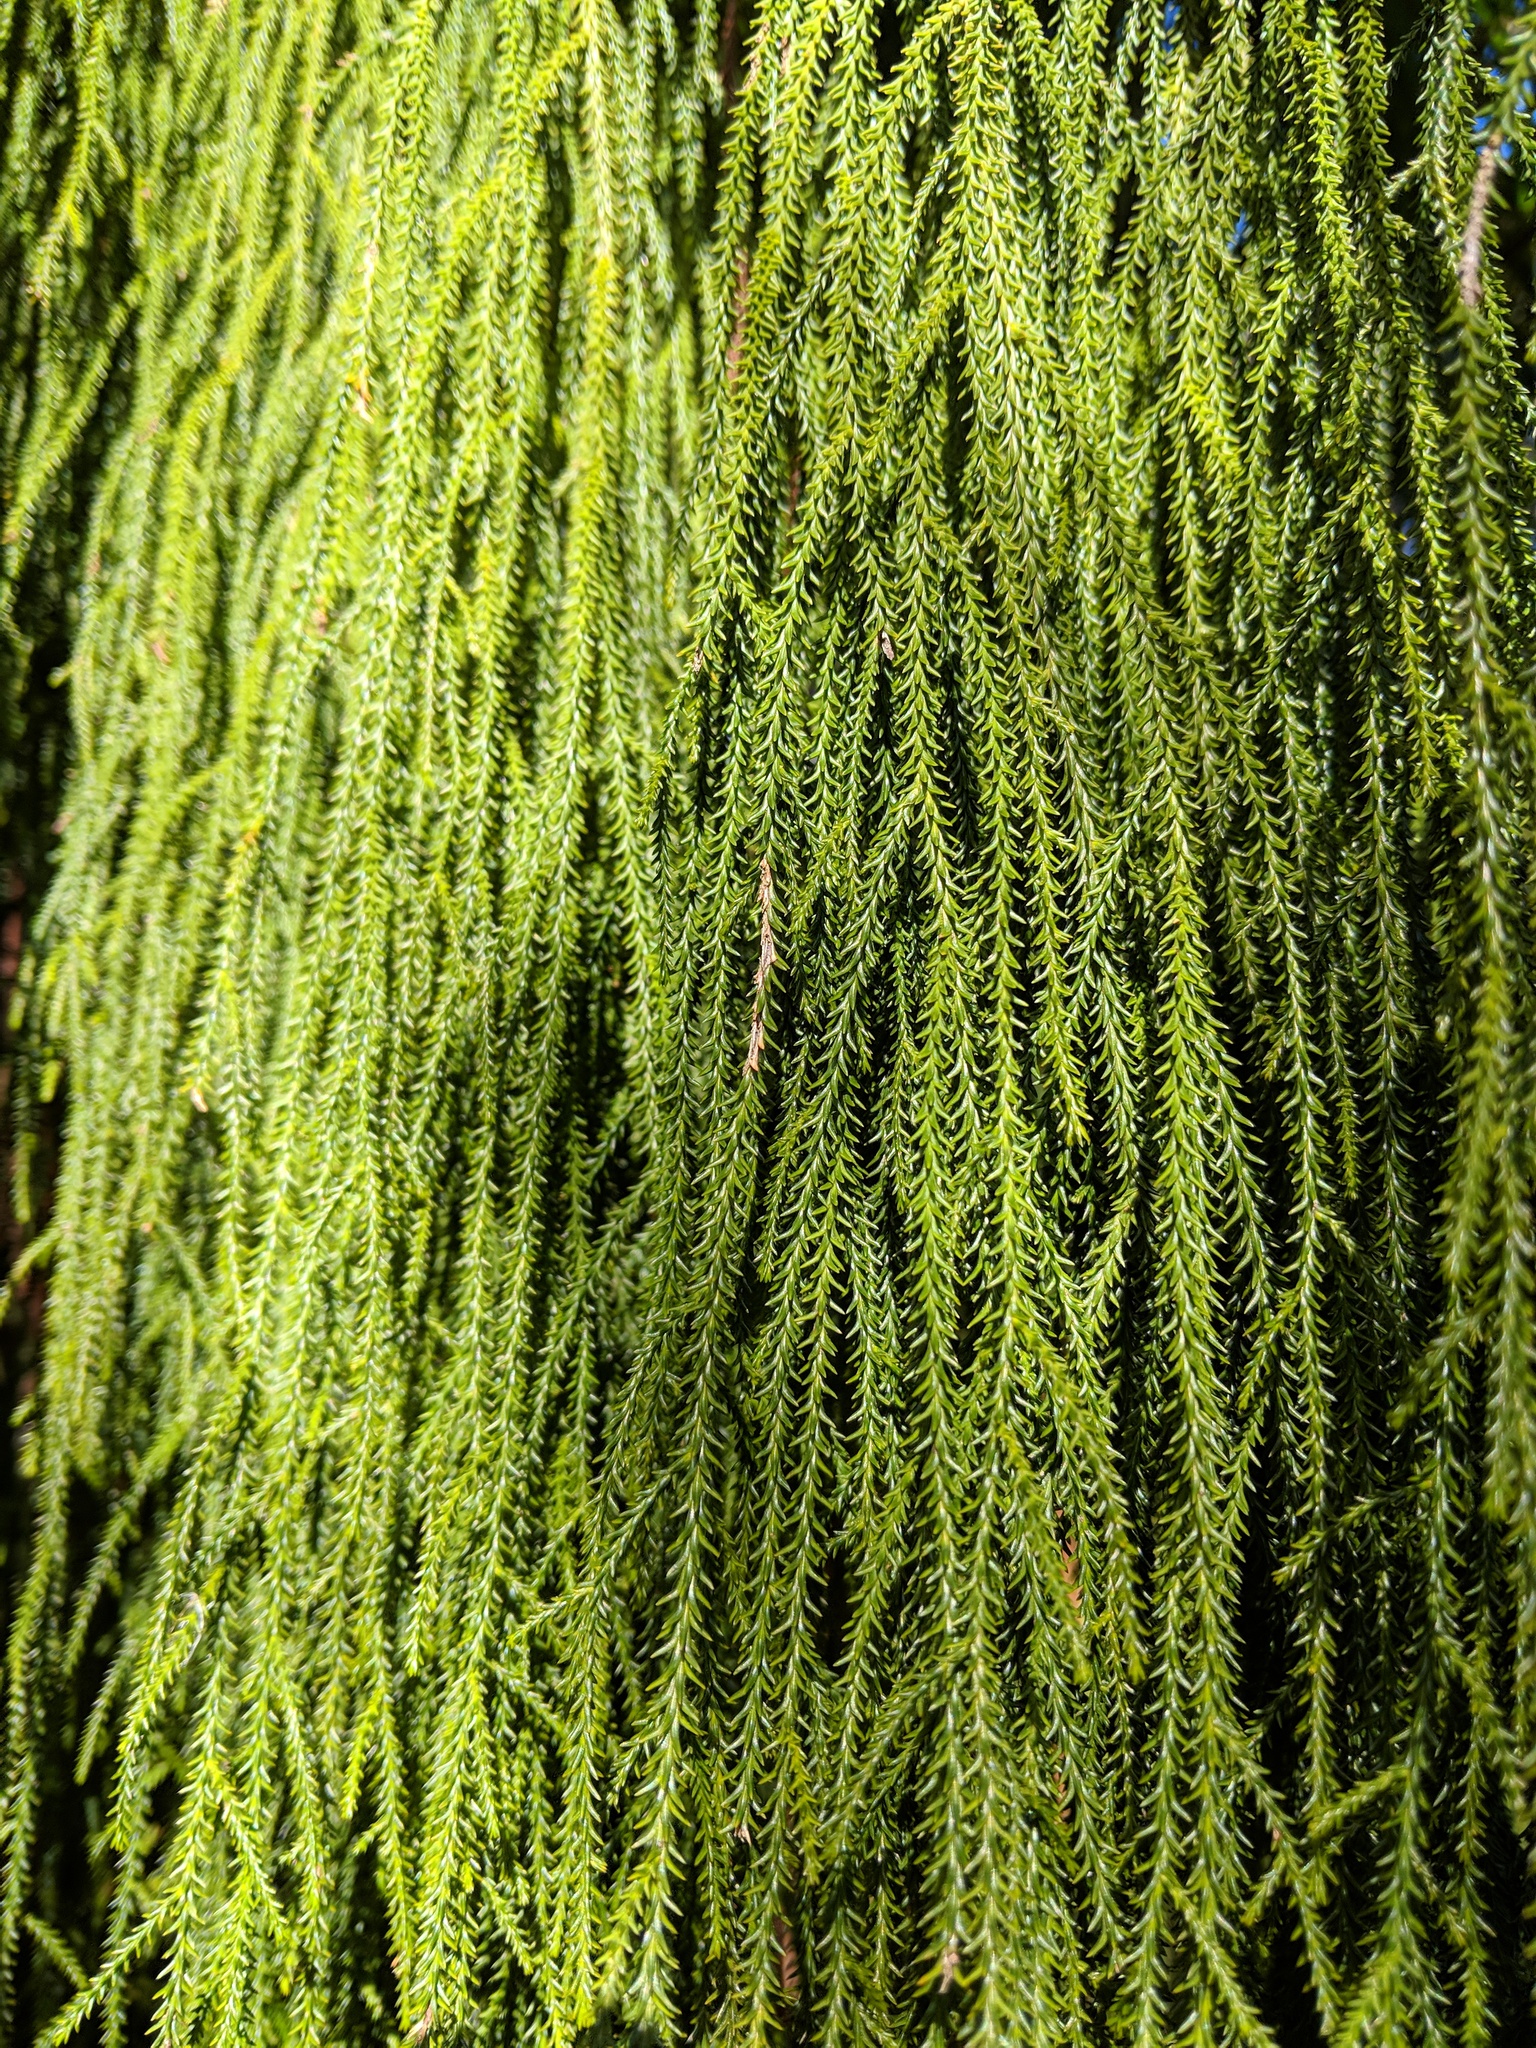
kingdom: Plantae
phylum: Tracheophyta
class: Pinopsida
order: Pinales
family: Podocarpaceae
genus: Dacrydium
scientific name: Dacrydium cupressinum
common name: Red pine
